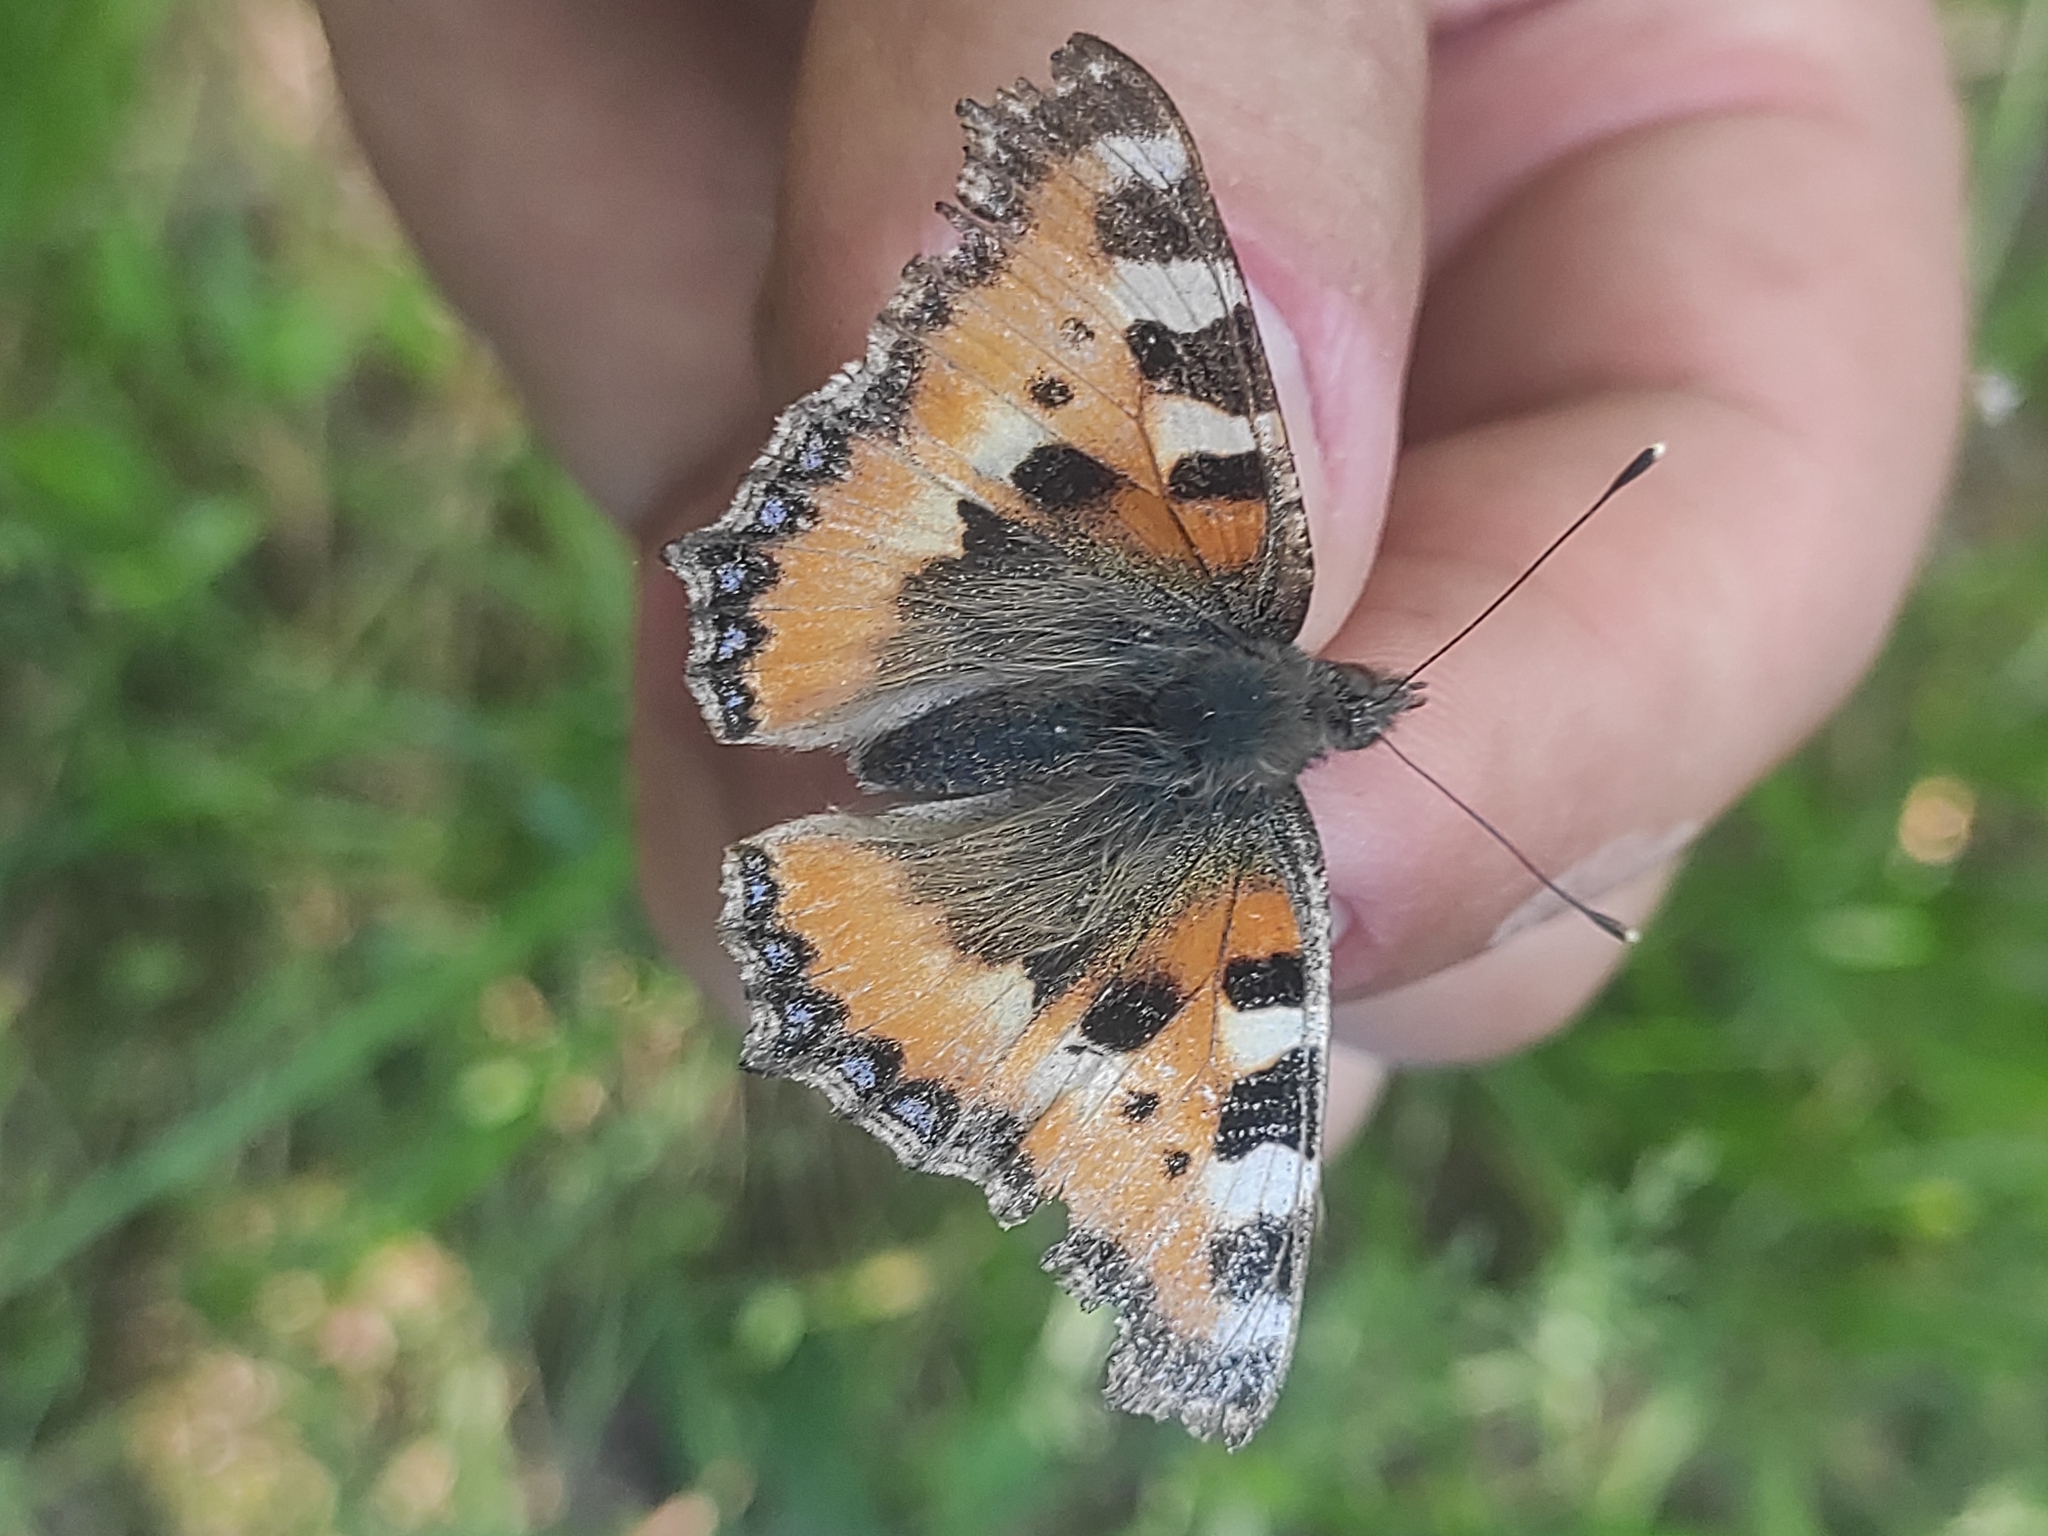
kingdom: Animalia
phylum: Arthropoda
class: Insecta
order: Lepidoptera
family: Nymphalidae
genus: Aglais
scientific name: Aglais urticae
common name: Small tortoiseshell
